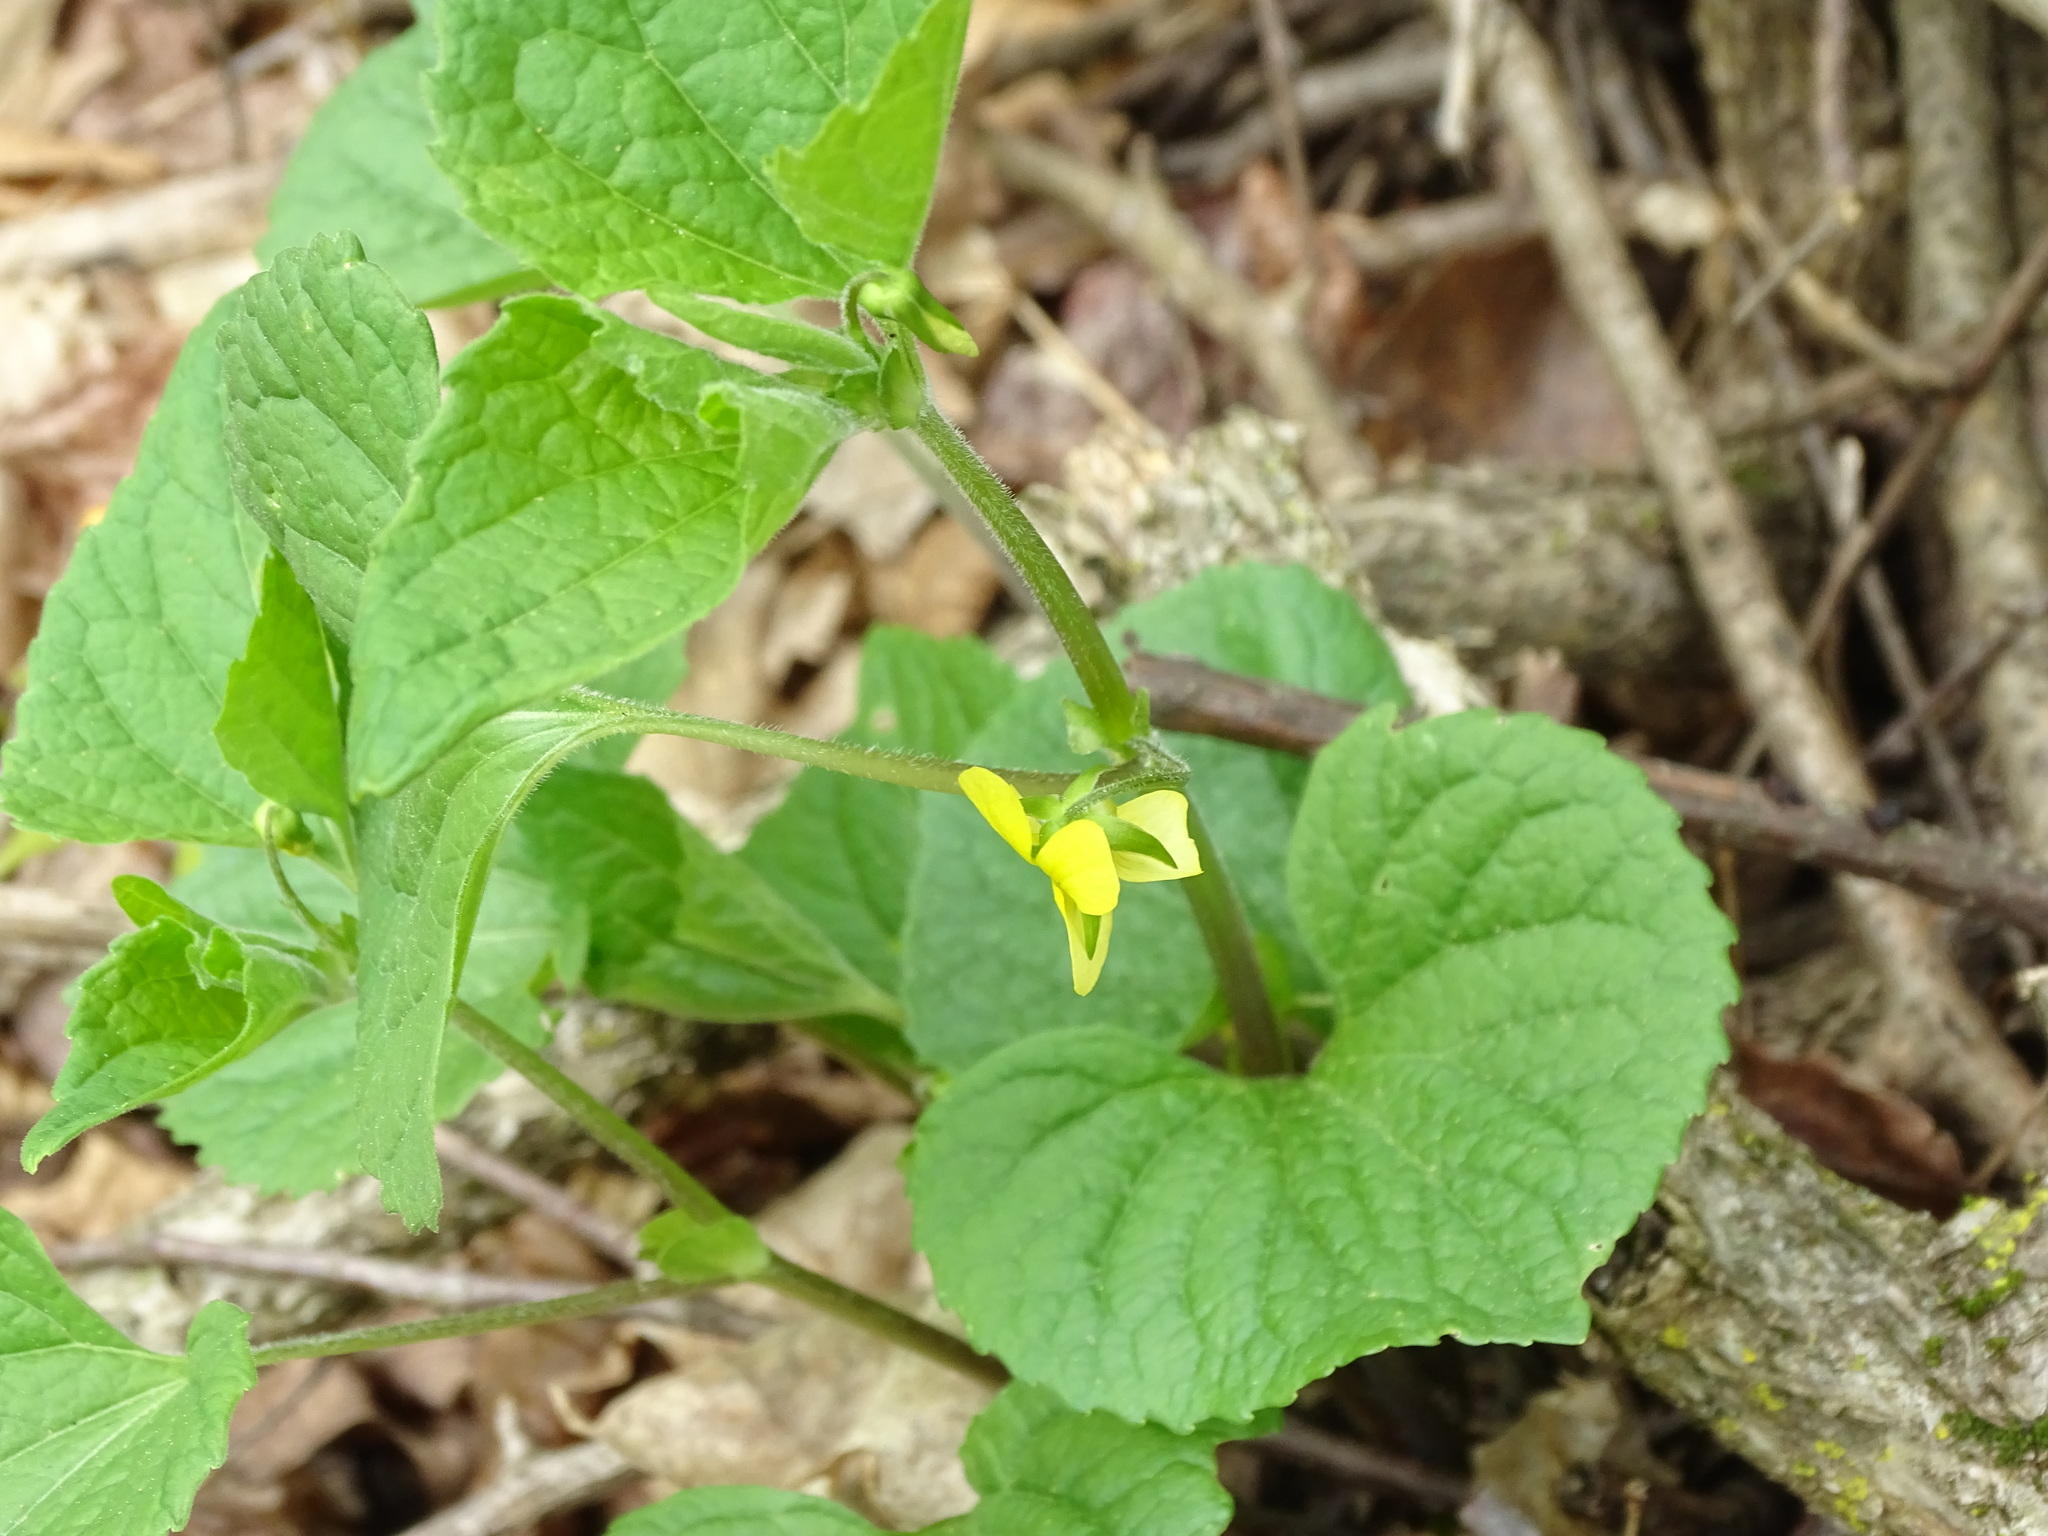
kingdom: Plantae
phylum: Tracheophyta
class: Magnoliopsida
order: Malpighiales
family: Violaceae
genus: Viola
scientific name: Viola eriocarpa
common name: Smooth yellow violet
